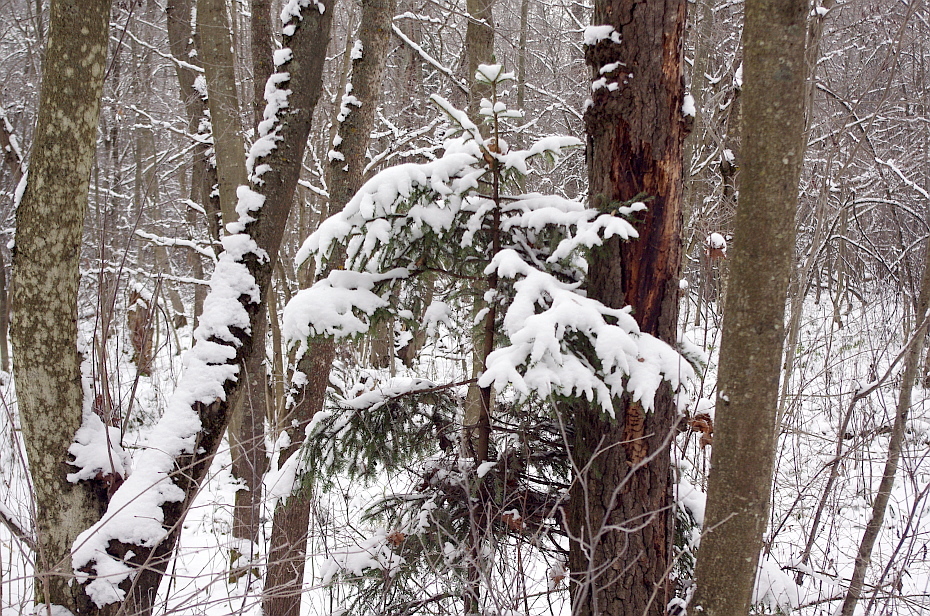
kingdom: Plantae
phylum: Tracheophyta
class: Pinopsida
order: Pinales
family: Pinaceae
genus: Picea
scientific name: Picea abies
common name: Norway spruce
